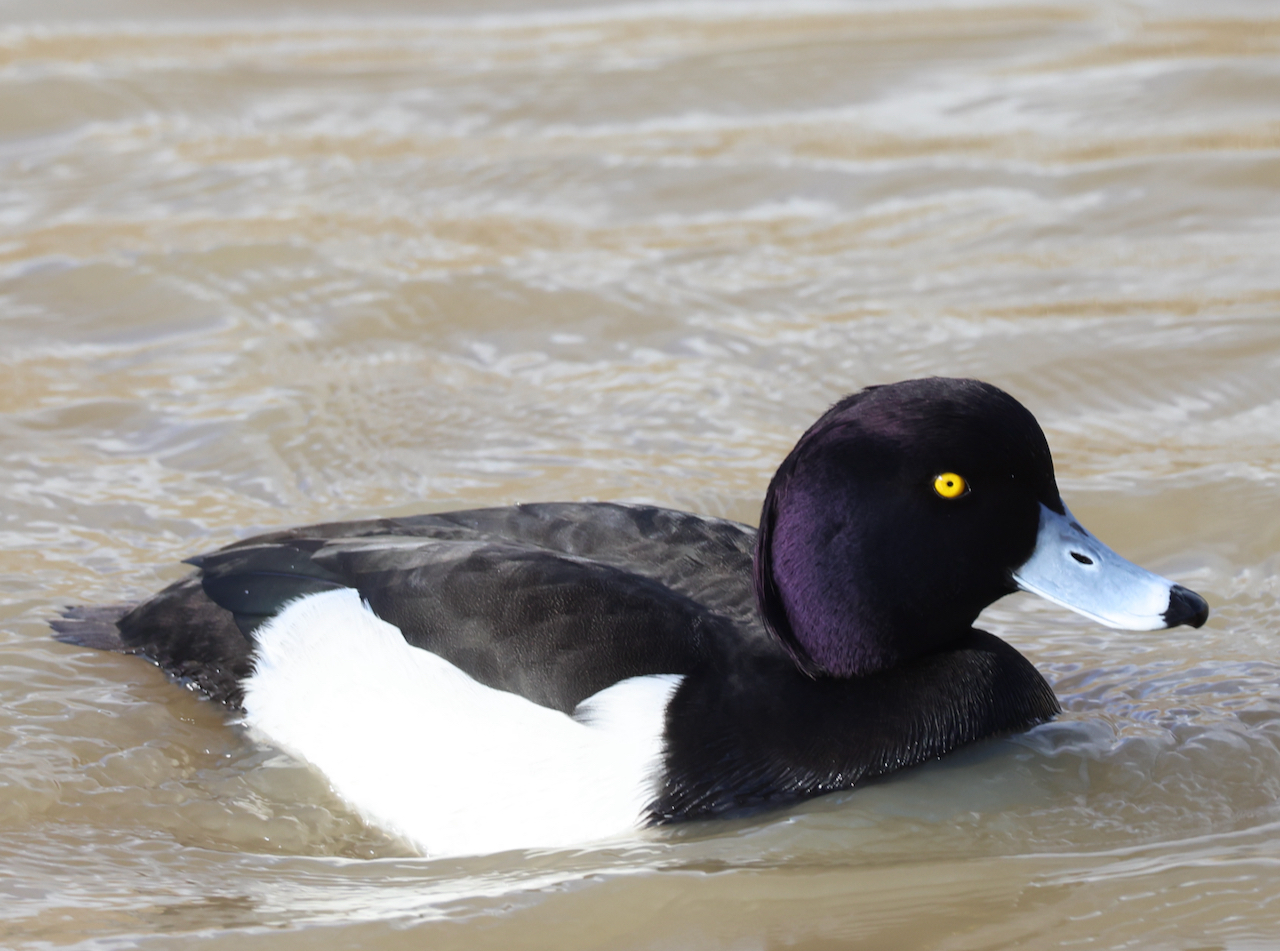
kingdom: Animalia
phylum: Chordata
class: Aves
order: Anseriformes
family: Anatidae
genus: Aythya
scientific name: Aythya fuligula
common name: Tufted duck
